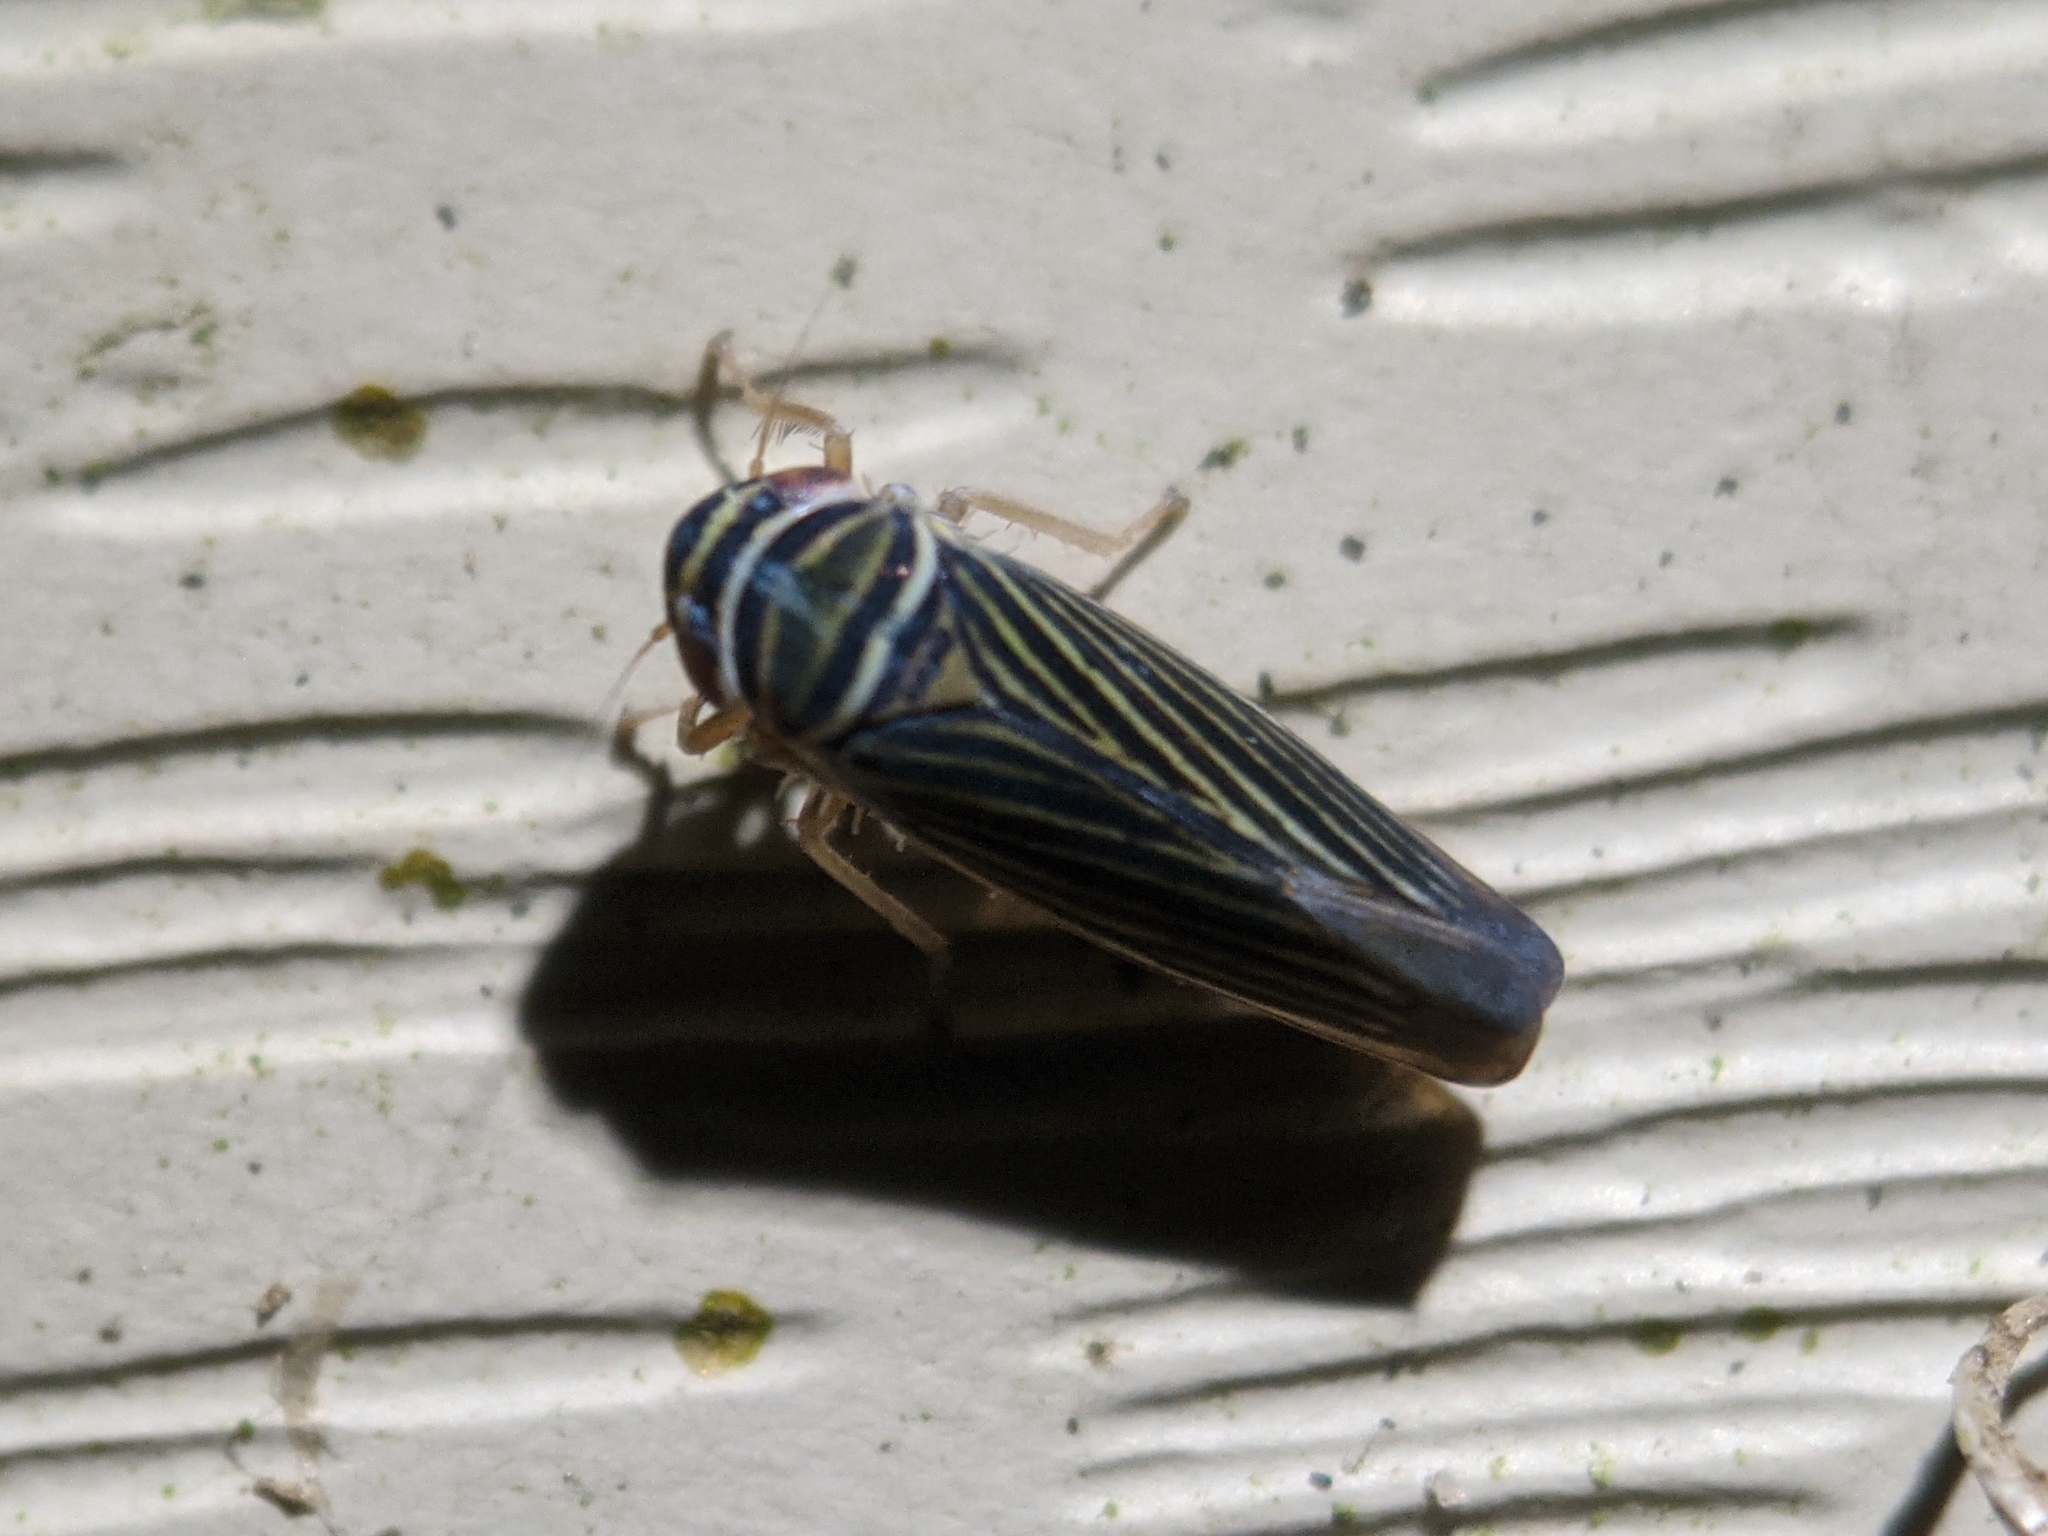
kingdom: Animalia
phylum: Arthropoda
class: Insecta
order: Hemiptera
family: Cicadellidae
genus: Tylozygus
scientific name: Tylozygus bifidus
